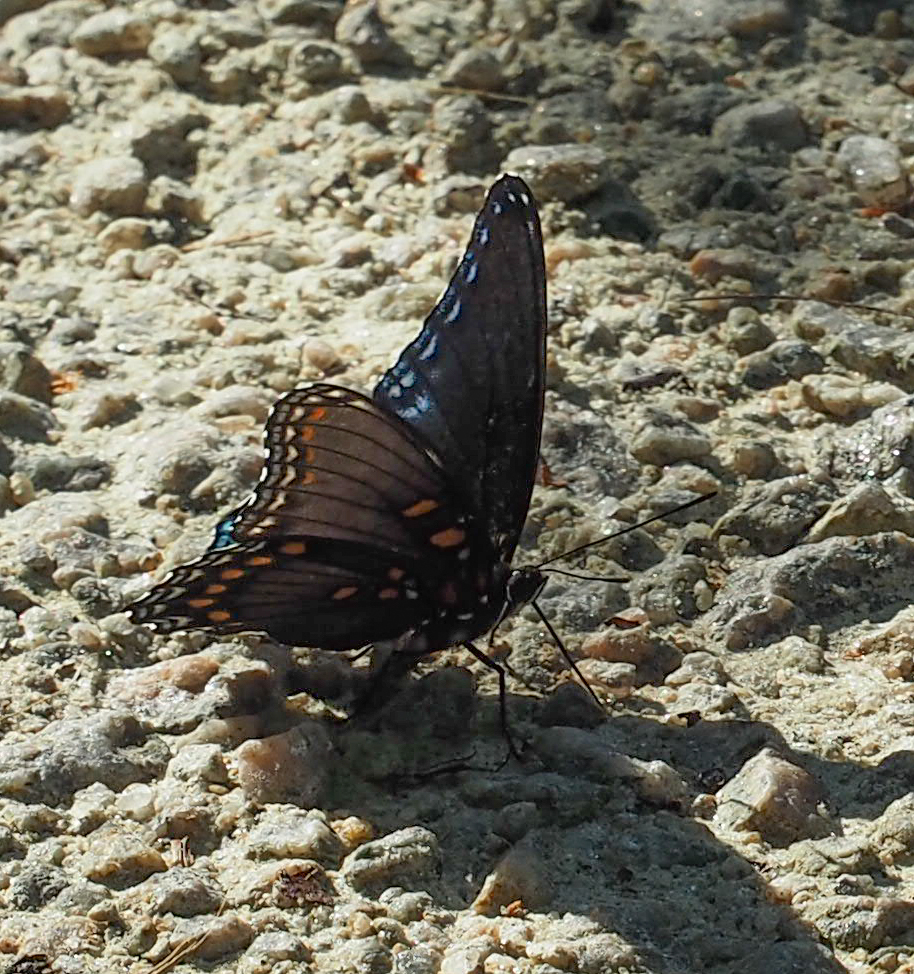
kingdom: Animalia
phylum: Arthropoda
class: Insecta
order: Lepidoptera
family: Nymphalidae
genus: Limenitis
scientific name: Limenitis arthemis
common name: Red-spotted admiral
